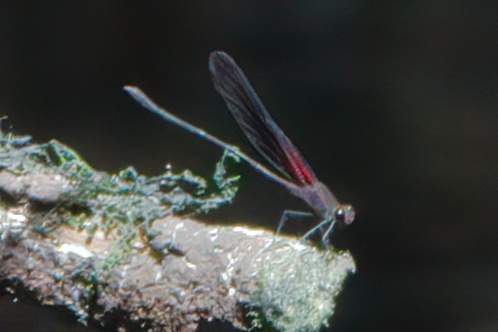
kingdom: Animalia
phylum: Arthropoda
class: Insecta
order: Odonata
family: Calopterygidae
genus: Hetaerina
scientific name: Hetaerina titia
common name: Smoky rubyspot
